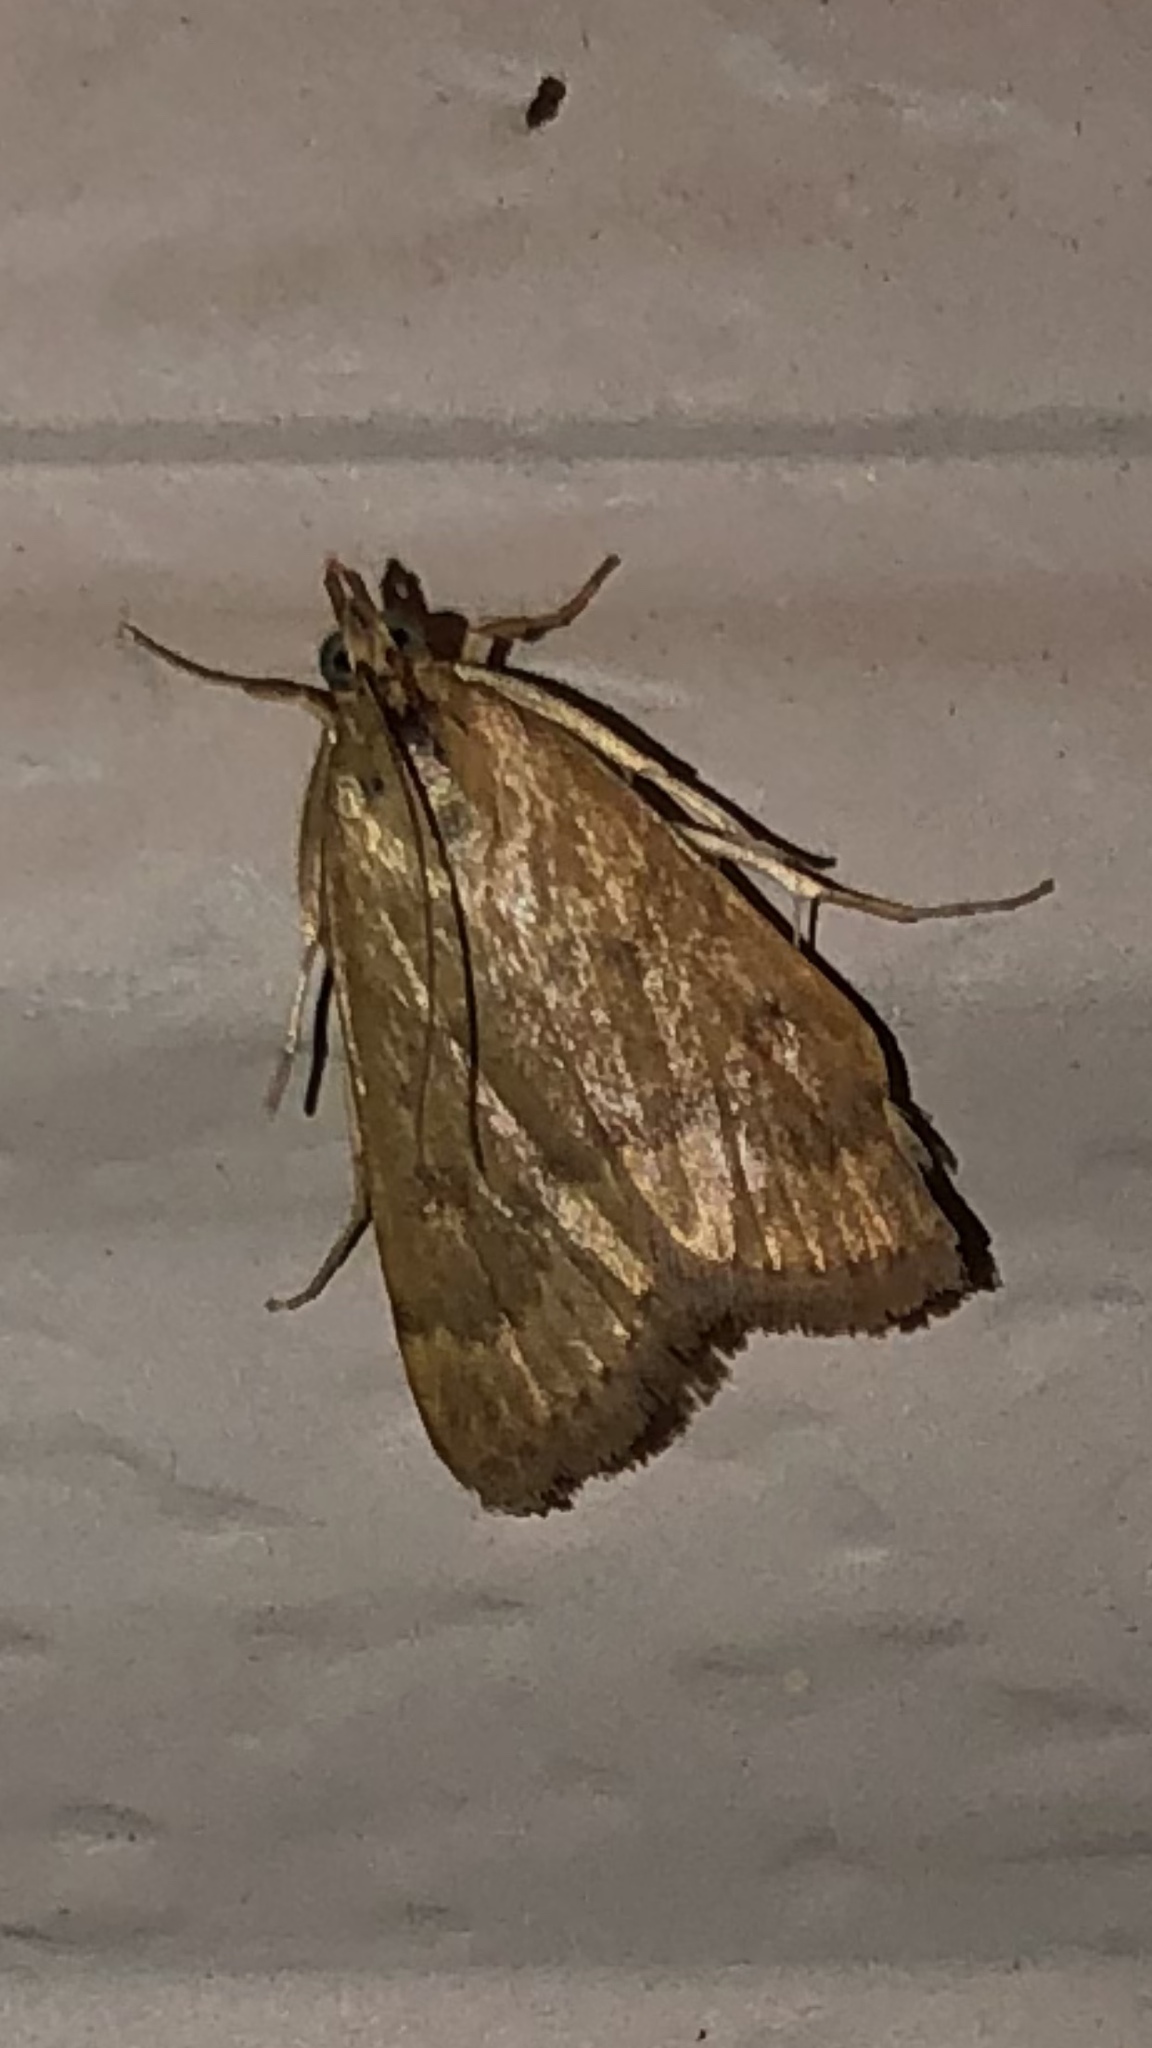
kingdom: Animalia
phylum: Arthropoda
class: Insecta
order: Lepidoptera
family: Crambidae
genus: Achyra
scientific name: Achyra rantalis
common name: Garden webworm
